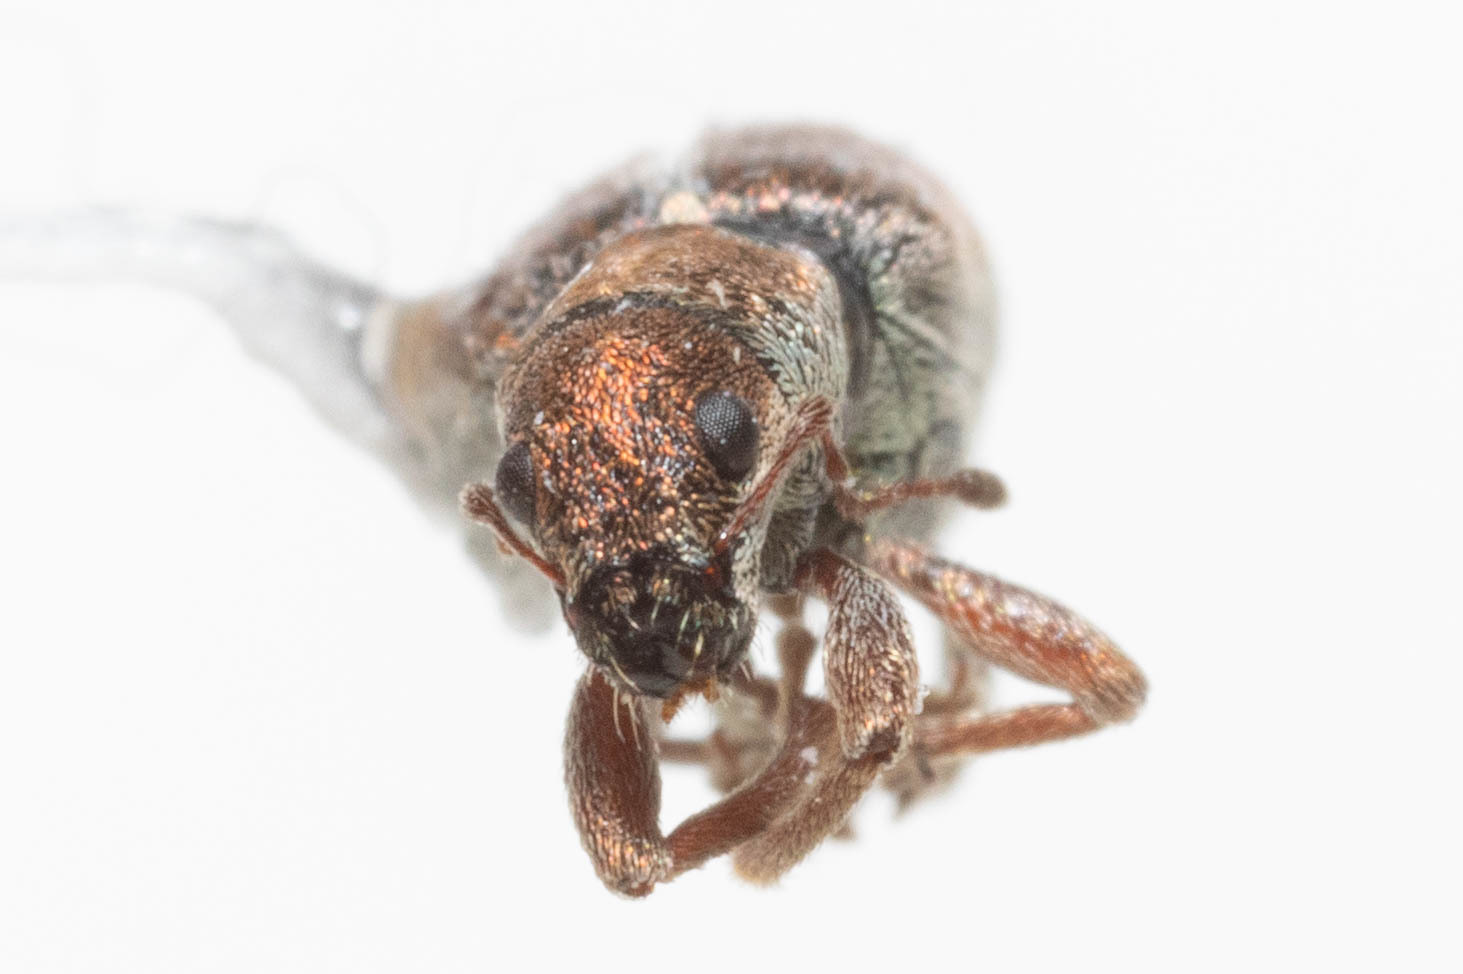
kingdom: Animalia
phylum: Arthropoda
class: Insecta
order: Coleoptera
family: Curculionidae
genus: Pachyrhinus
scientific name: Pachyrhinus californicus
